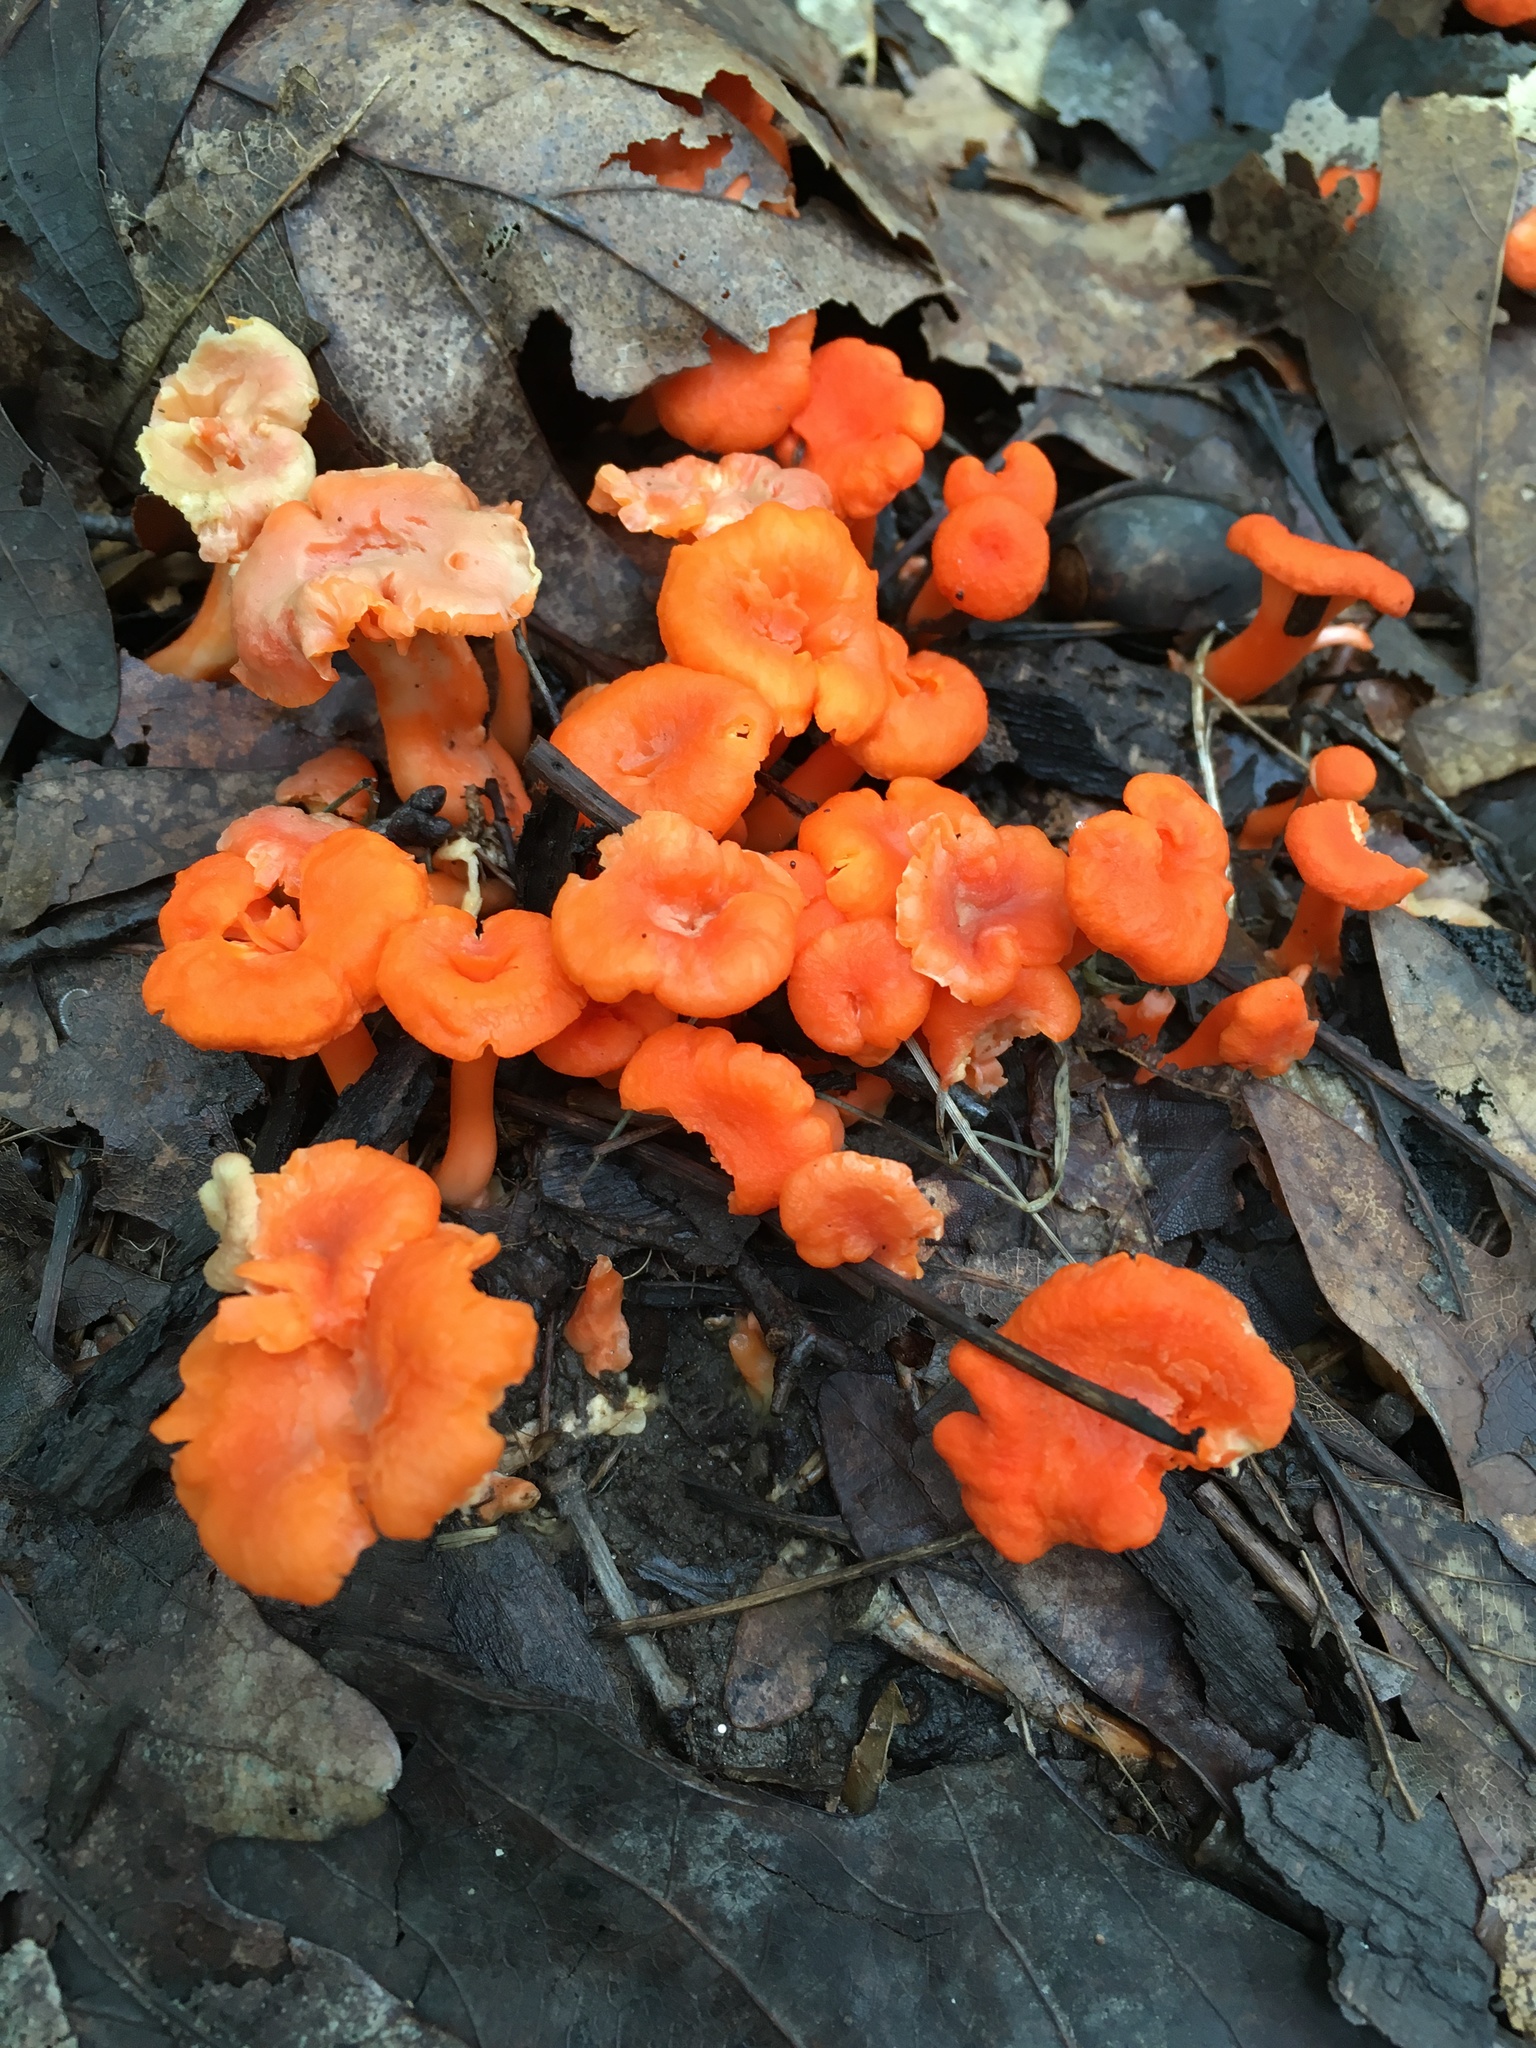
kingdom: Fungi
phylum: Basidiomycota
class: Agaricomycetes
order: Cantharellales
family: Hydnaceae
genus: Cantharellus
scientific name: Cantharellus cinnabarinus
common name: Cinnabar chanterelle
